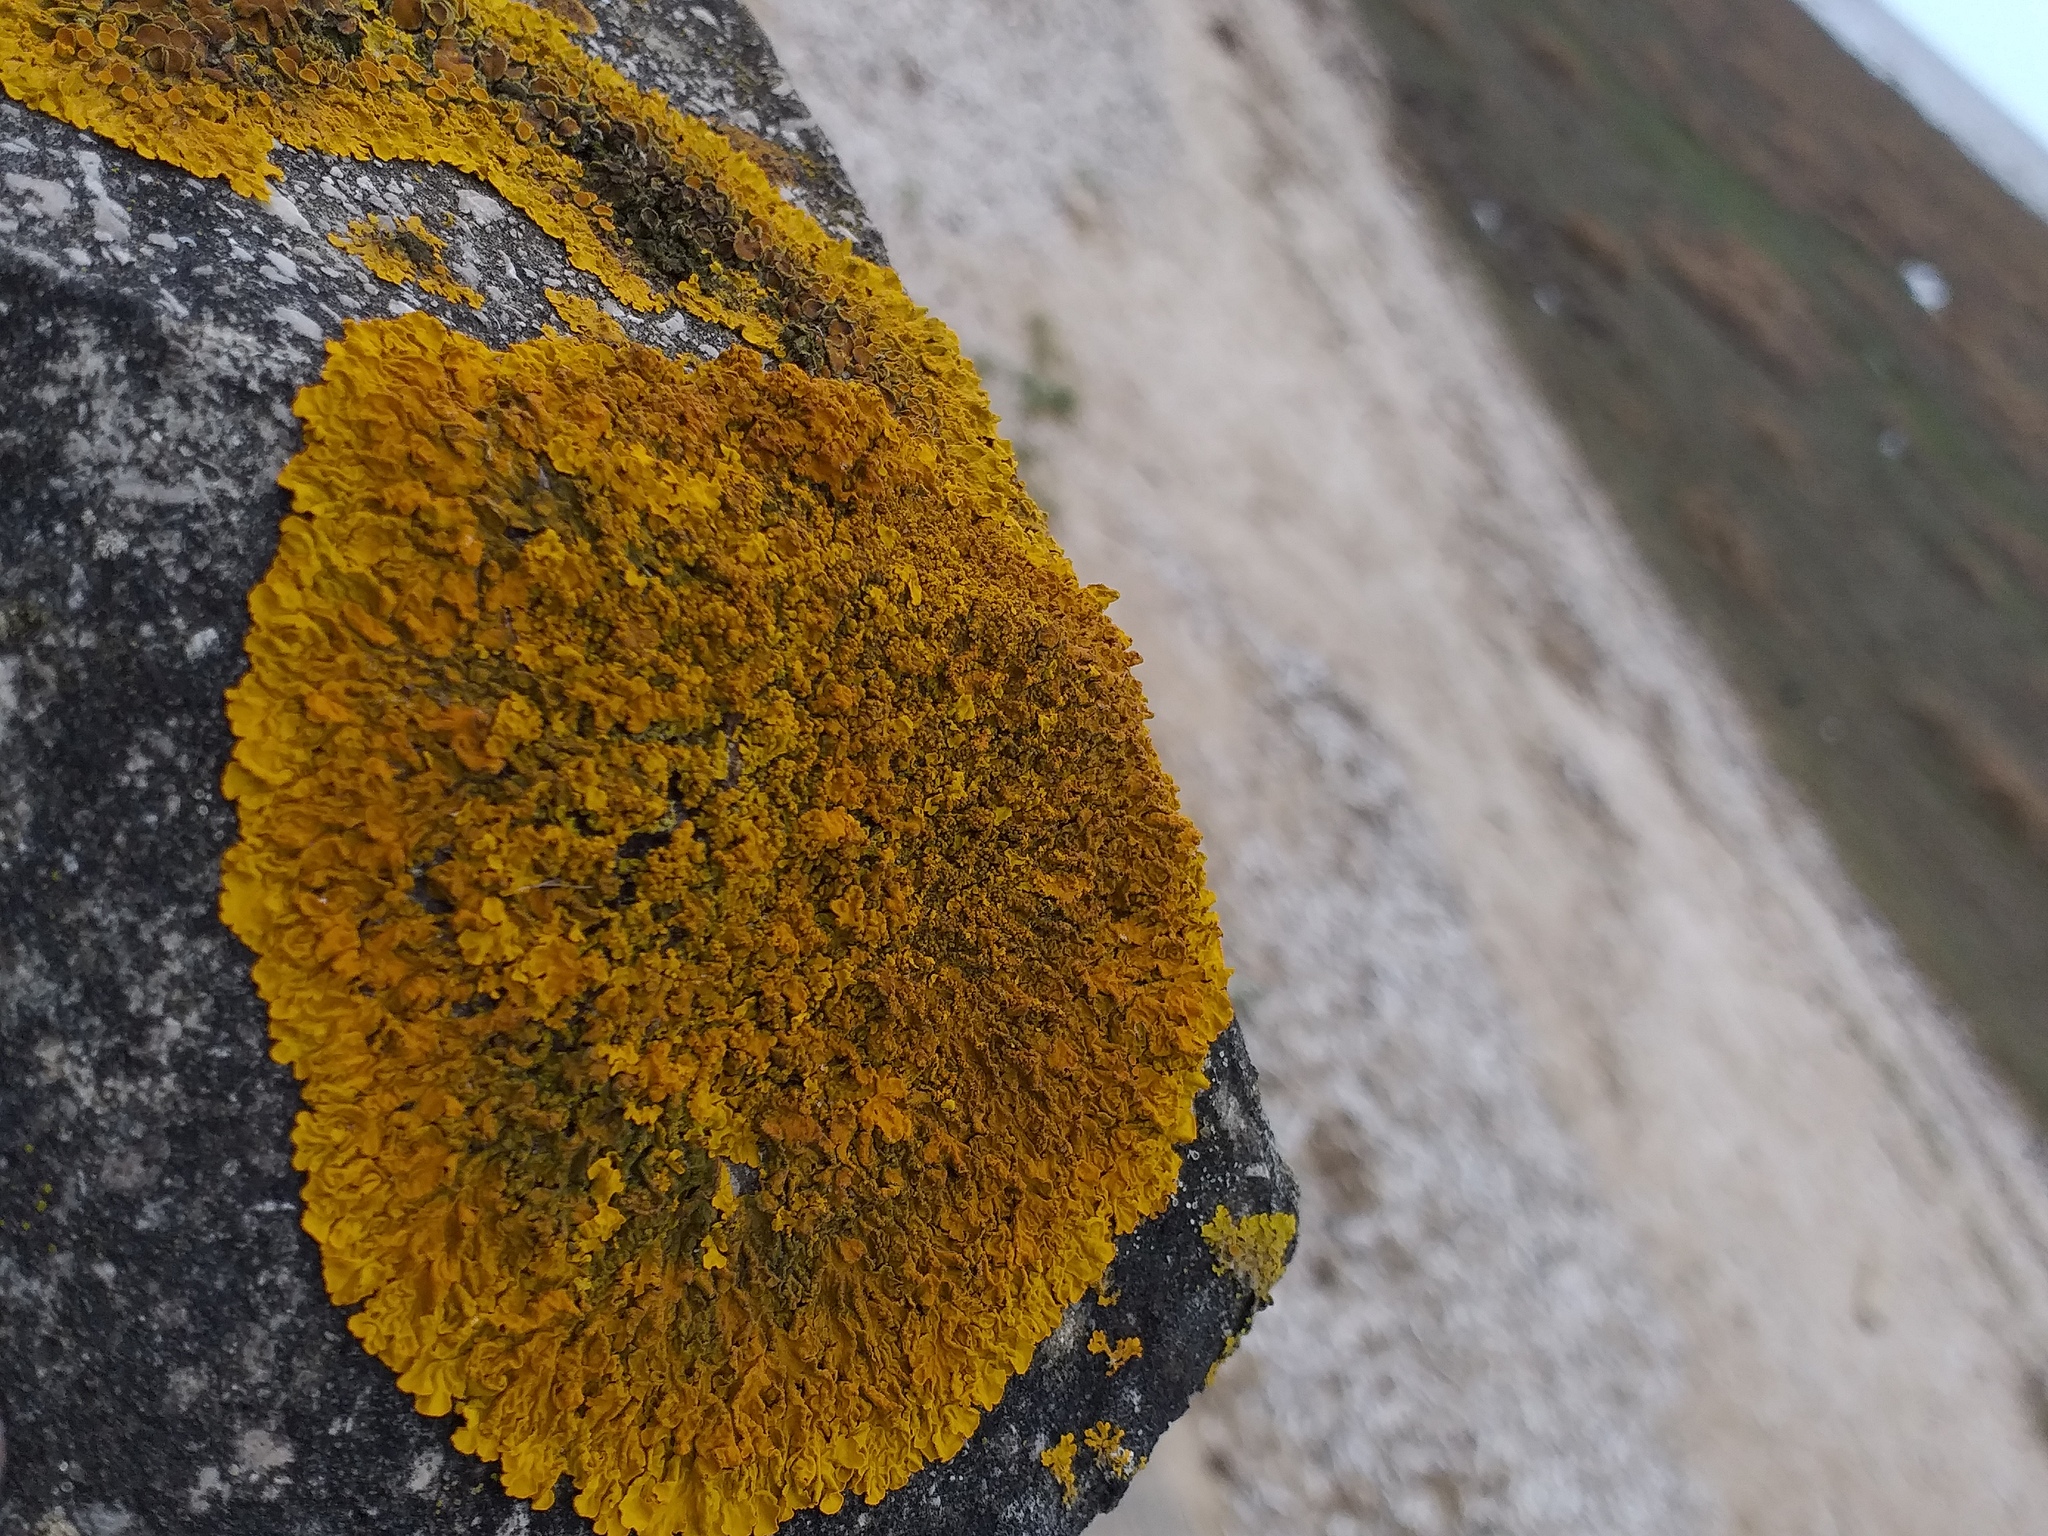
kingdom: Fungi
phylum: Ascomycota
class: Lecanoromycetes
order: Teloschistales
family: Teloschistaceae
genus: Xanthoria
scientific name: Xanthoria calcicola
